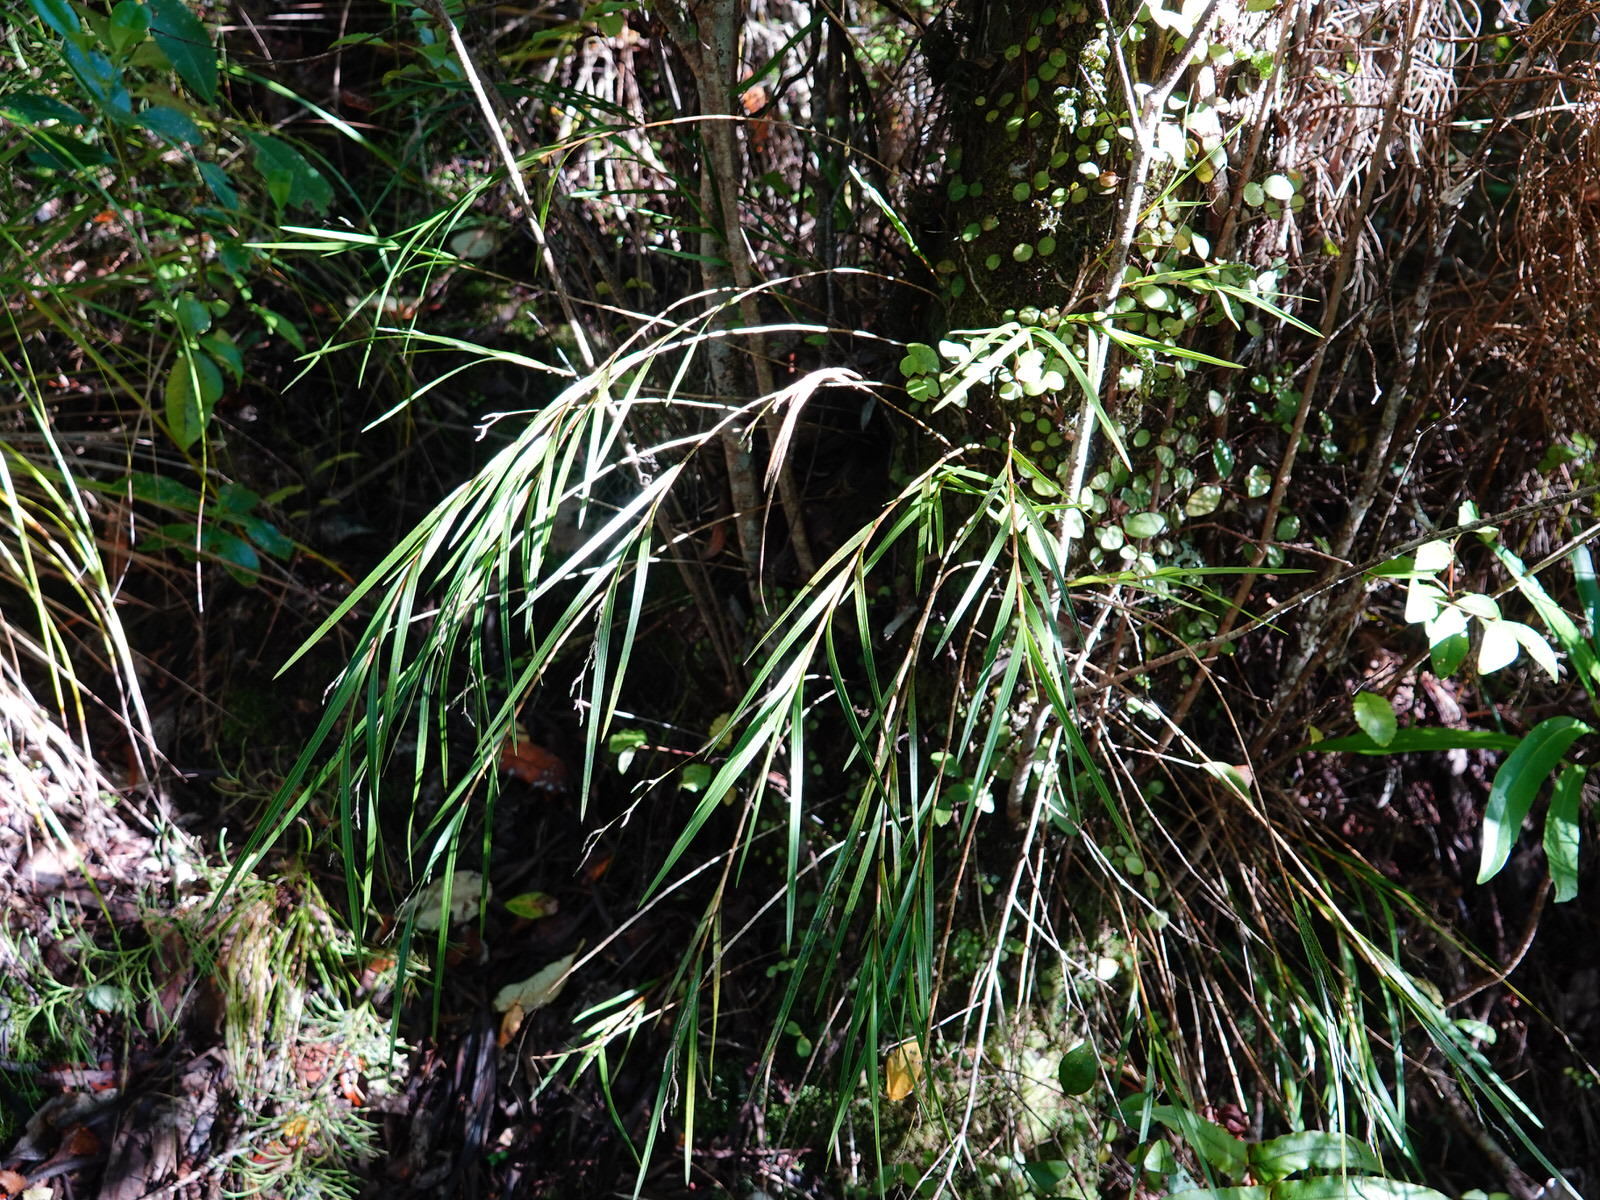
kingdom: Plantae
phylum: Tracheophyta
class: Liliopsida
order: Asparagales
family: Orchidaceae
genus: Earina
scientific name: Earina mucronata
